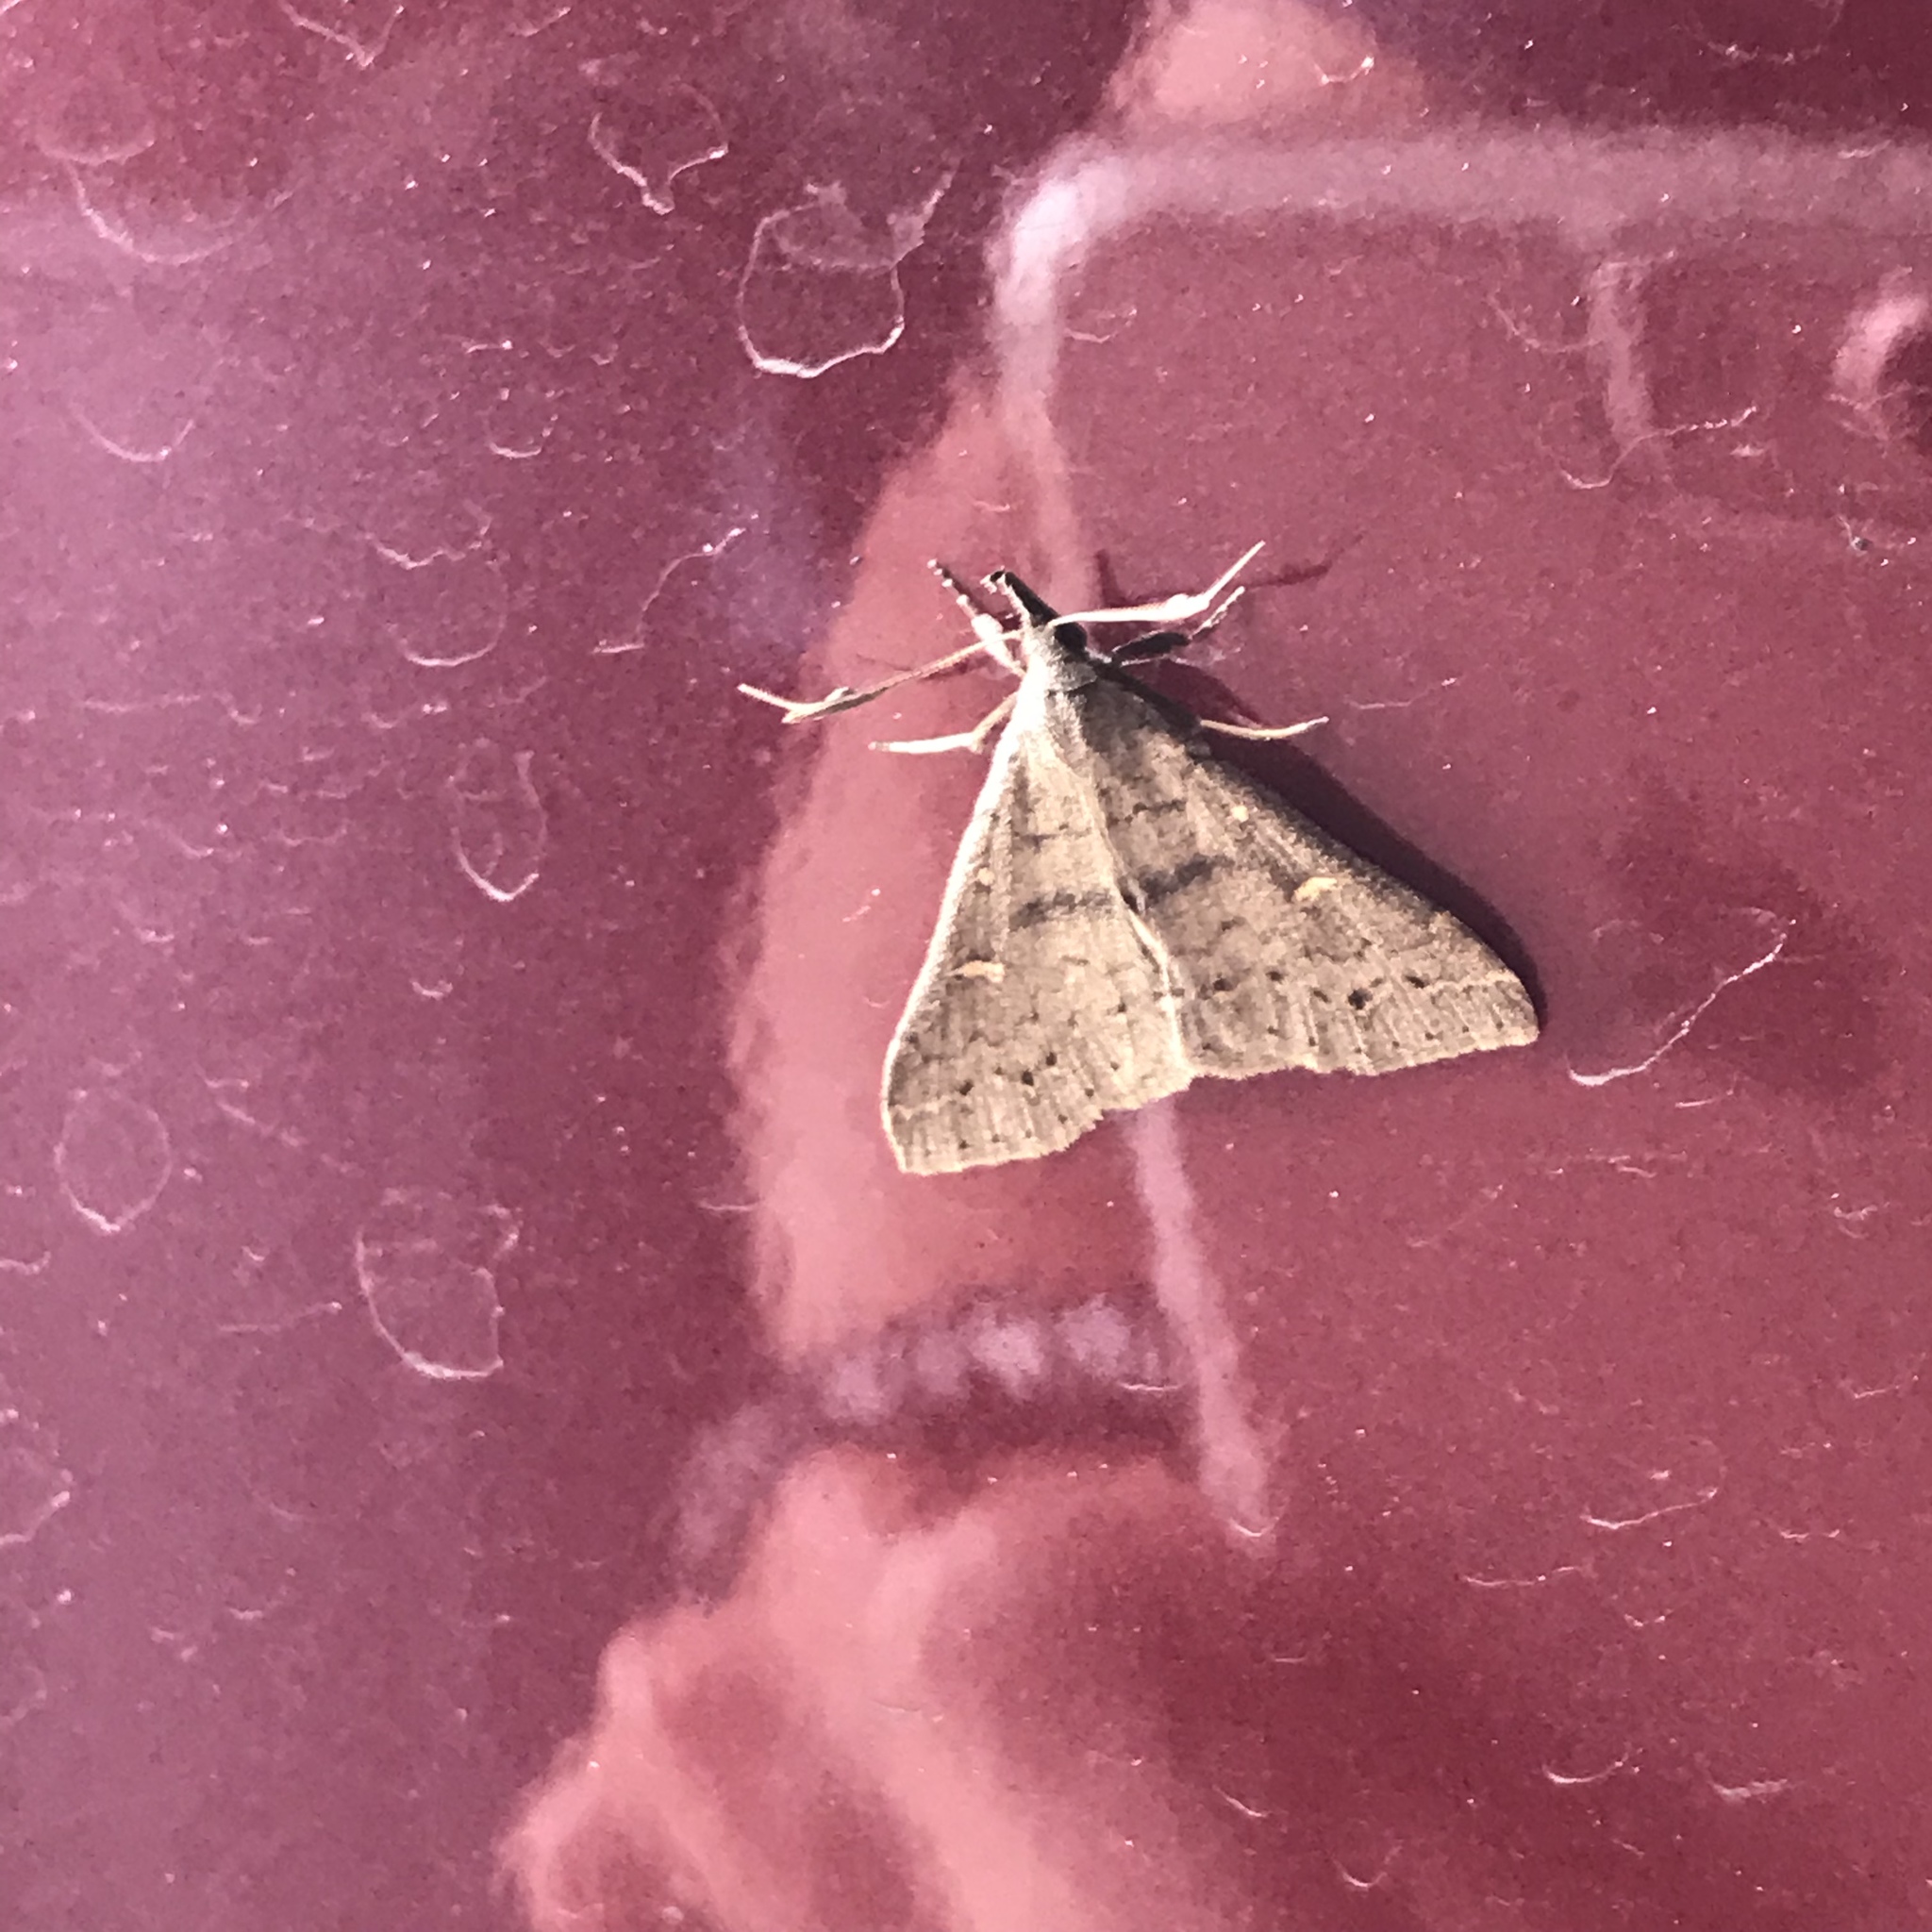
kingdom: Animalia
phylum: Arthropoda
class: Insecta
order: Lepidoptera
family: Erebidae
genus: Renia
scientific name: Renia adspergillus
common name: Speckled renia moth
